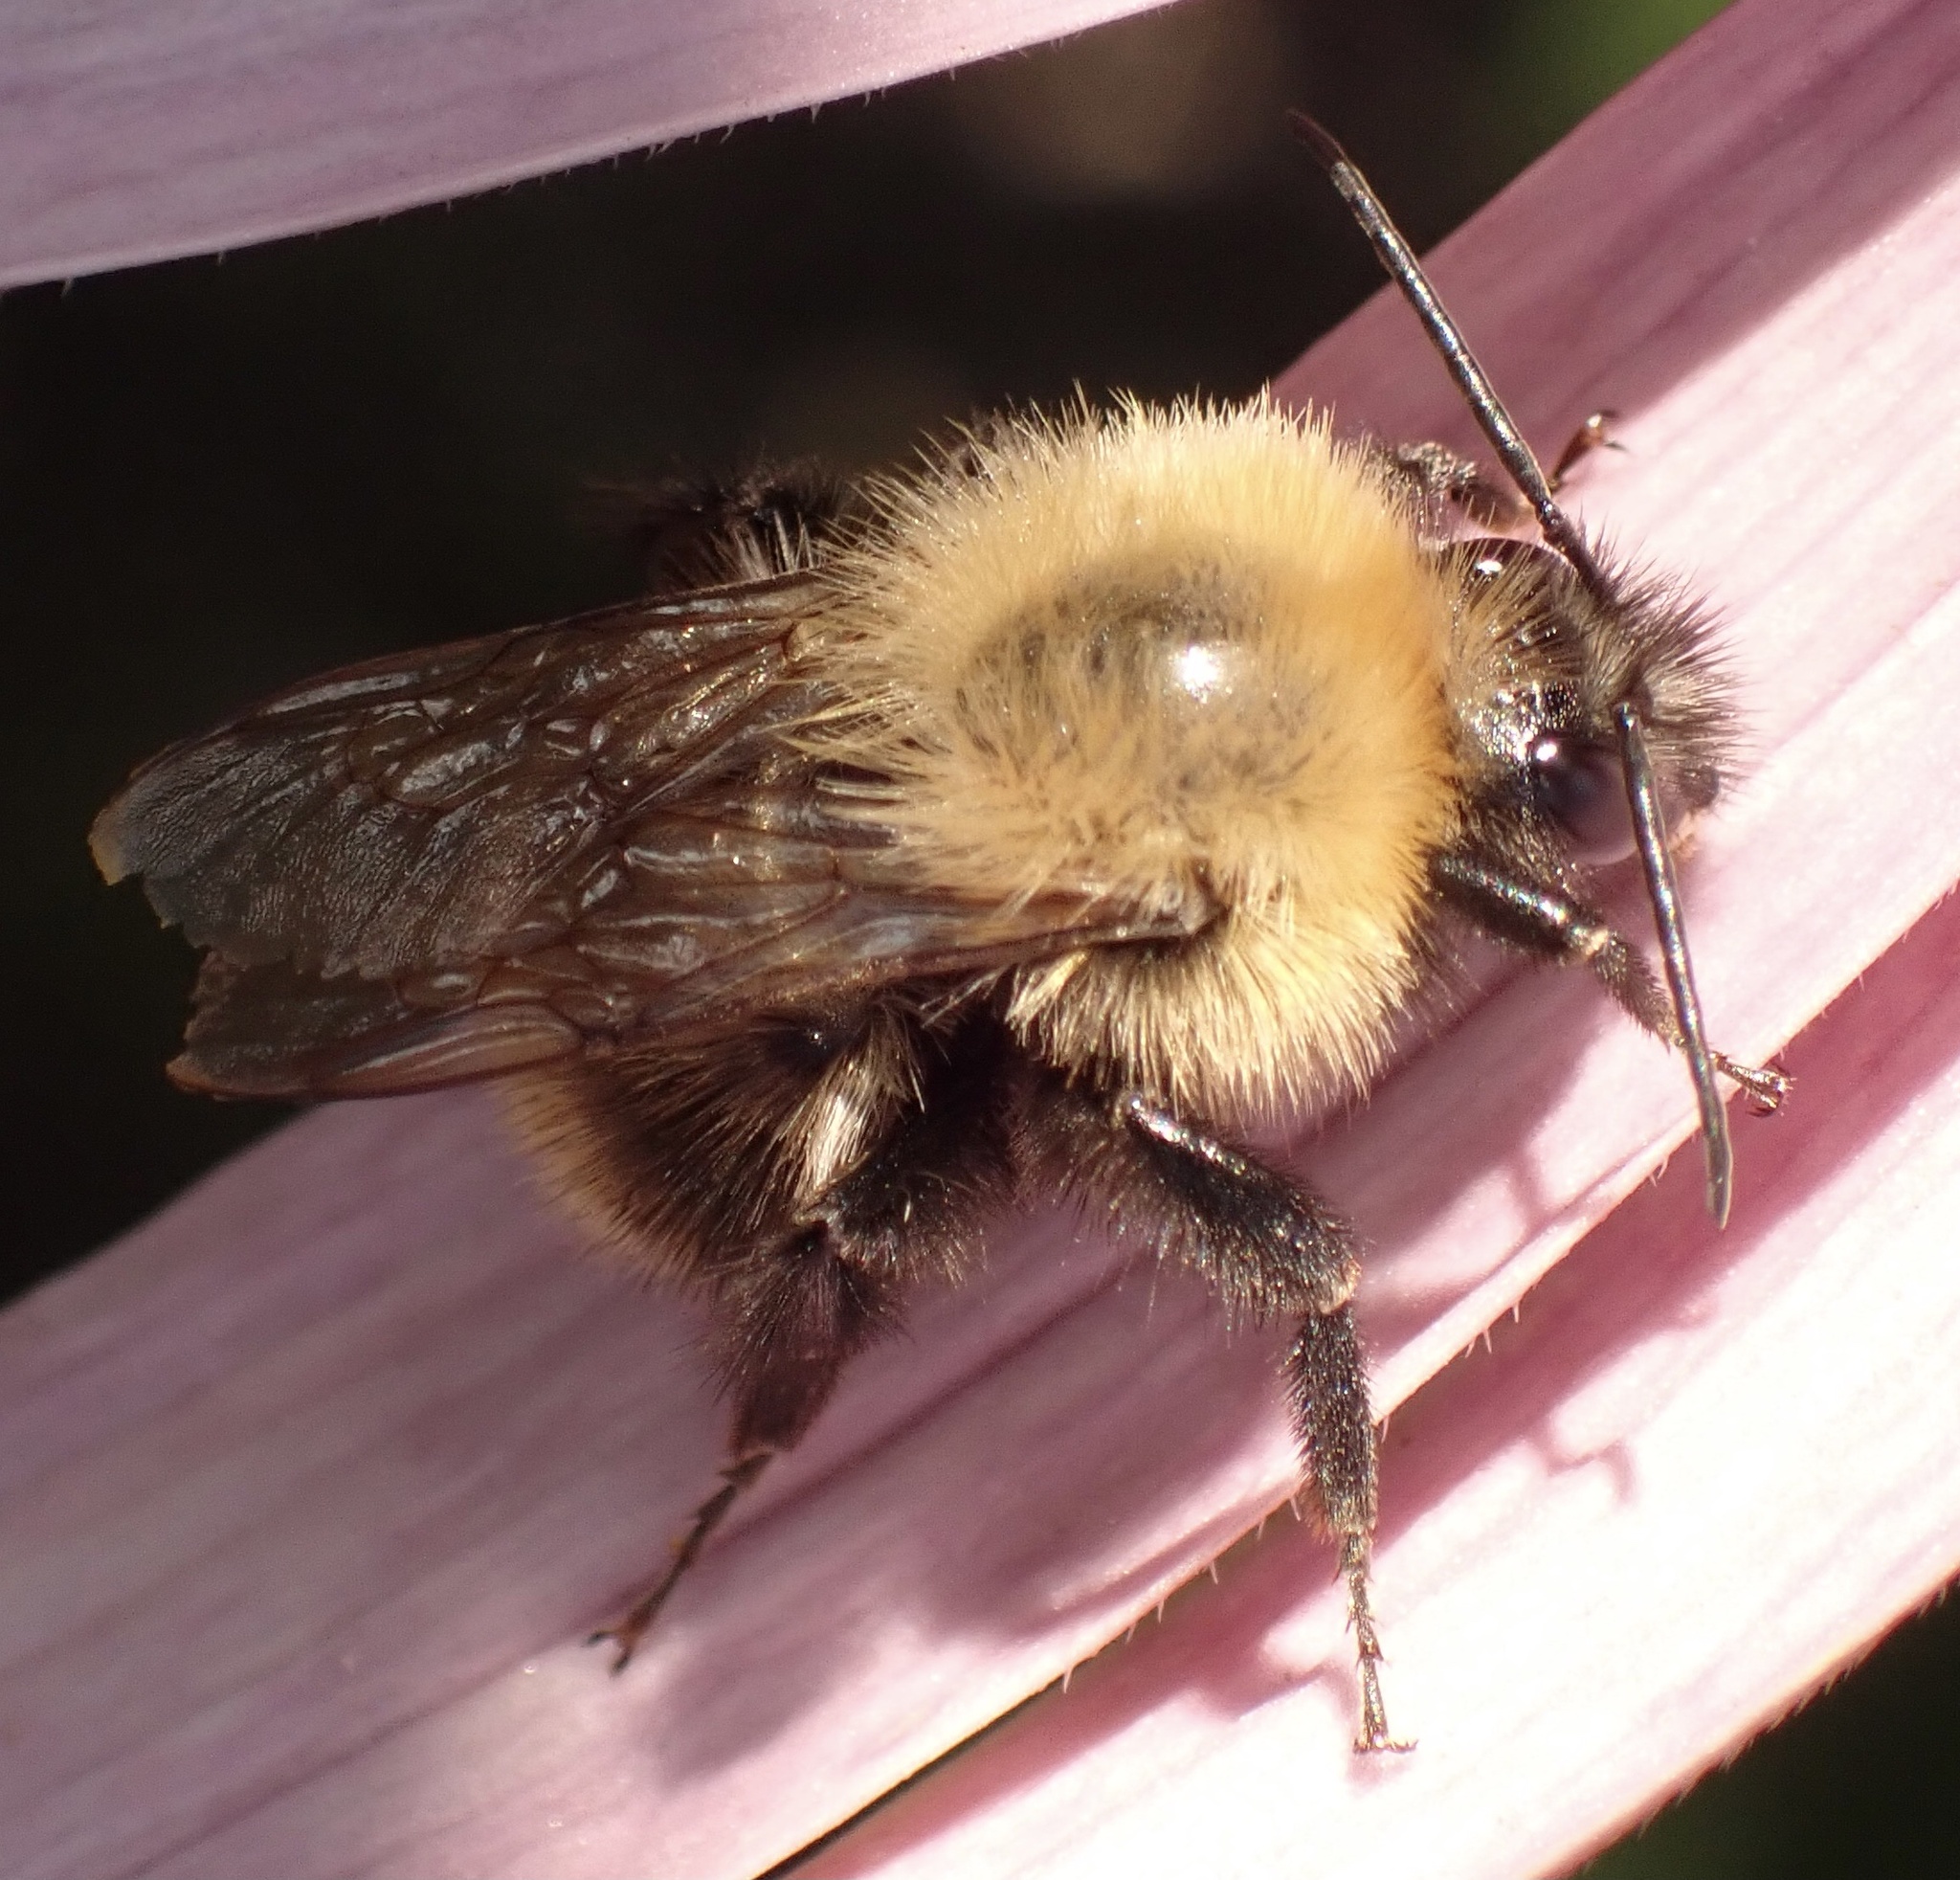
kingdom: Animalia
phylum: Arthropoda
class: Insecta
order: Hymenoptera
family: Apidae
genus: Bombus
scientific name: Bombus pascuorum
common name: Common carder bee
